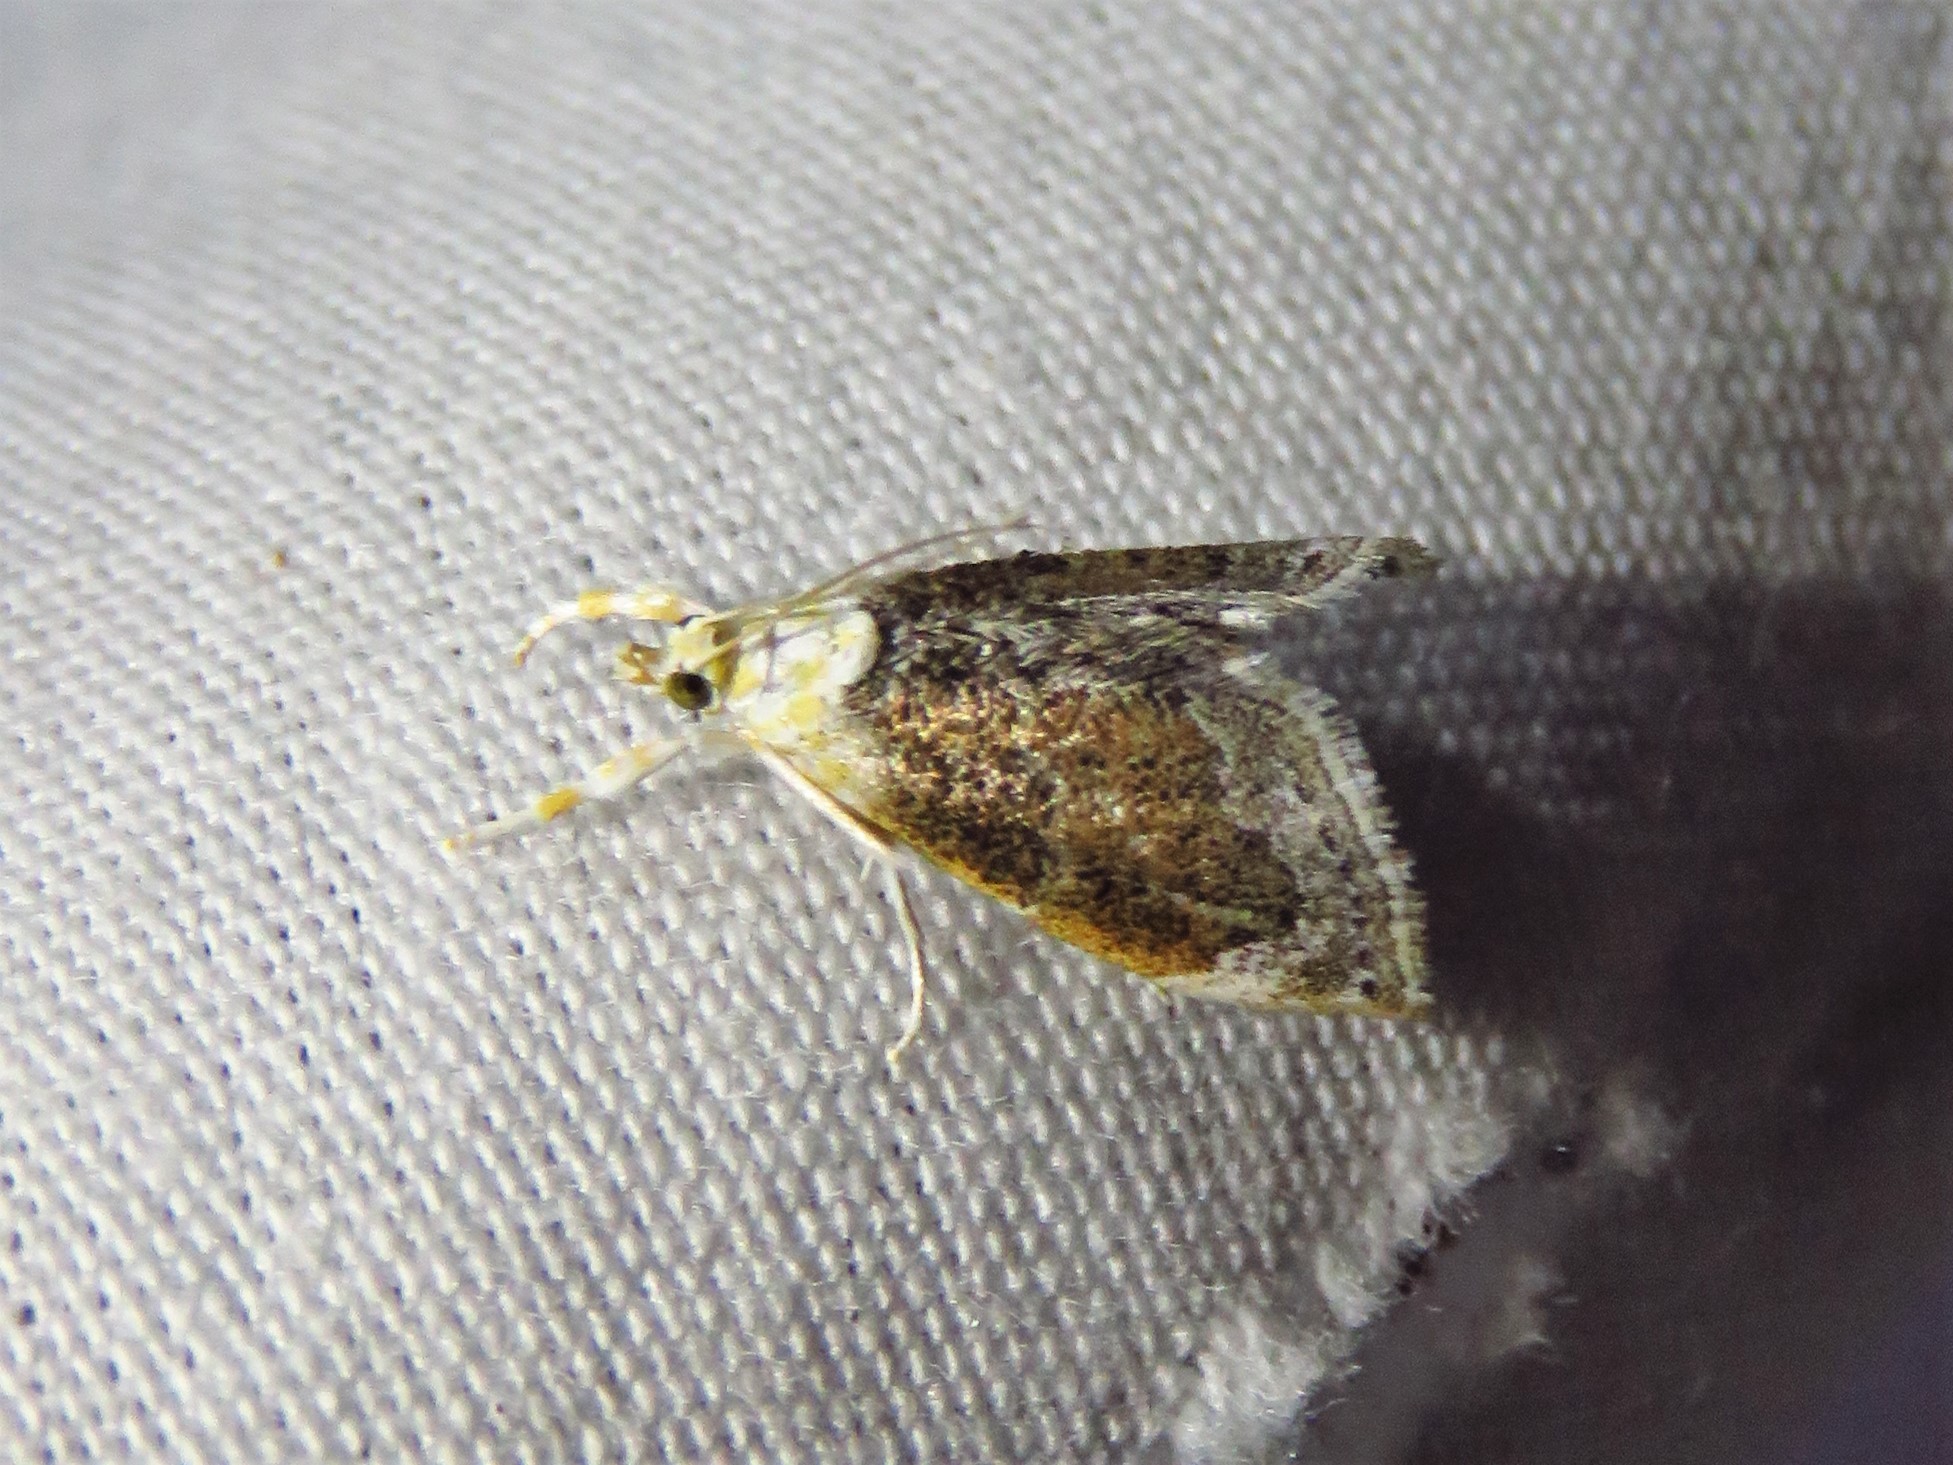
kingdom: Animalia
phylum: Arthropoda
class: Insecta
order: Lepidoptera
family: Crambidae
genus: Lipocosma
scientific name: Lipocosma polingi
